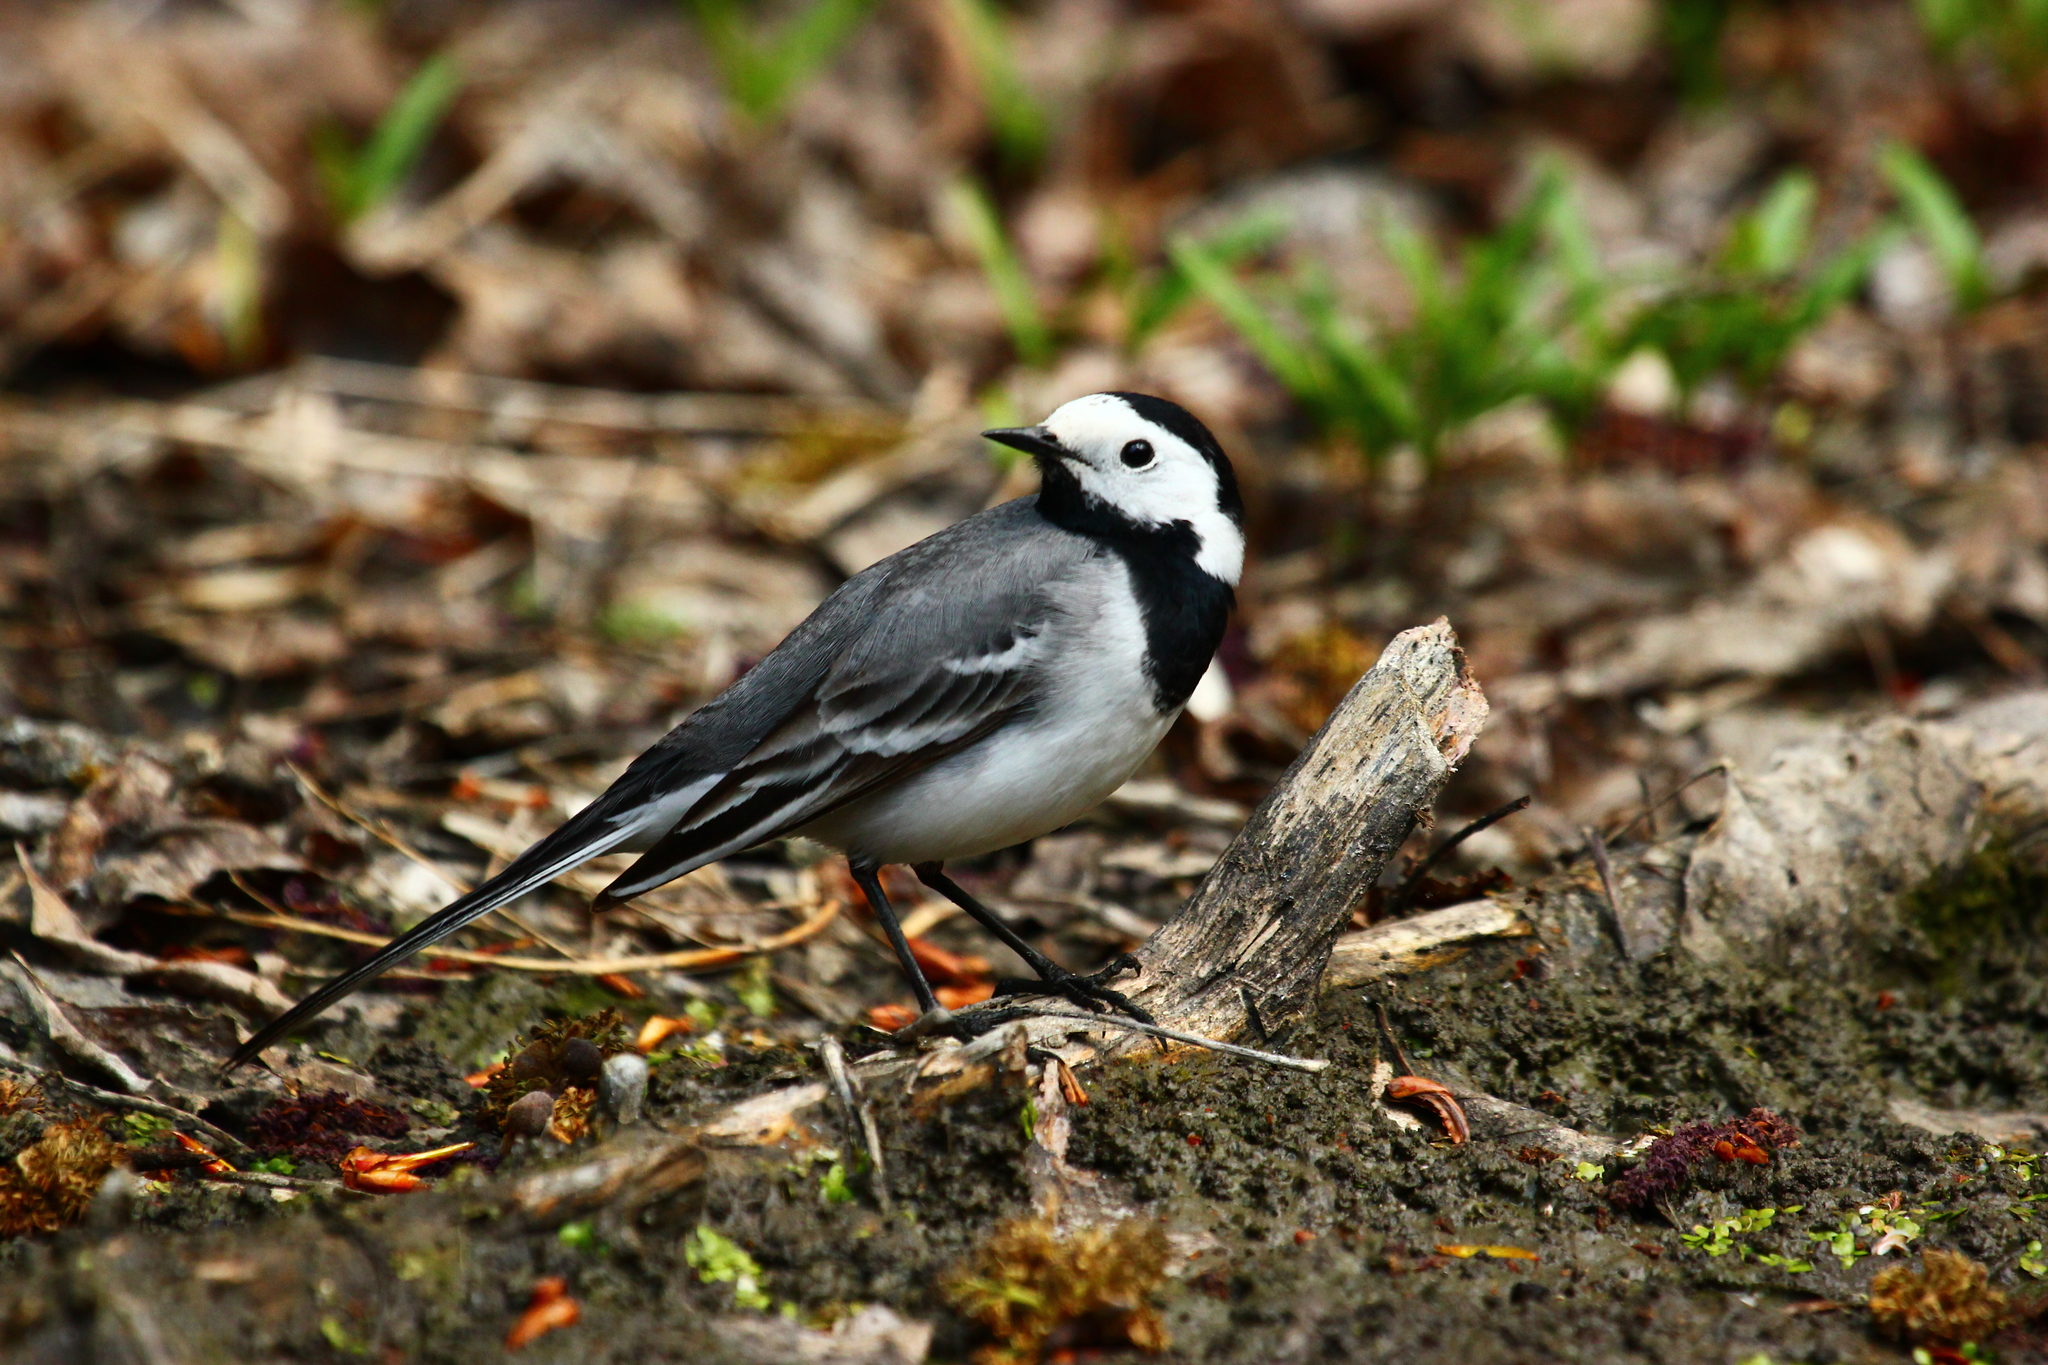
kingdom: Animalia
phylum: Chordata
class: Aves
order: Passeriformes
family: Motacillidae
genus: Motacilla
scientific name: Motacilla alba
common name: White wagtail
